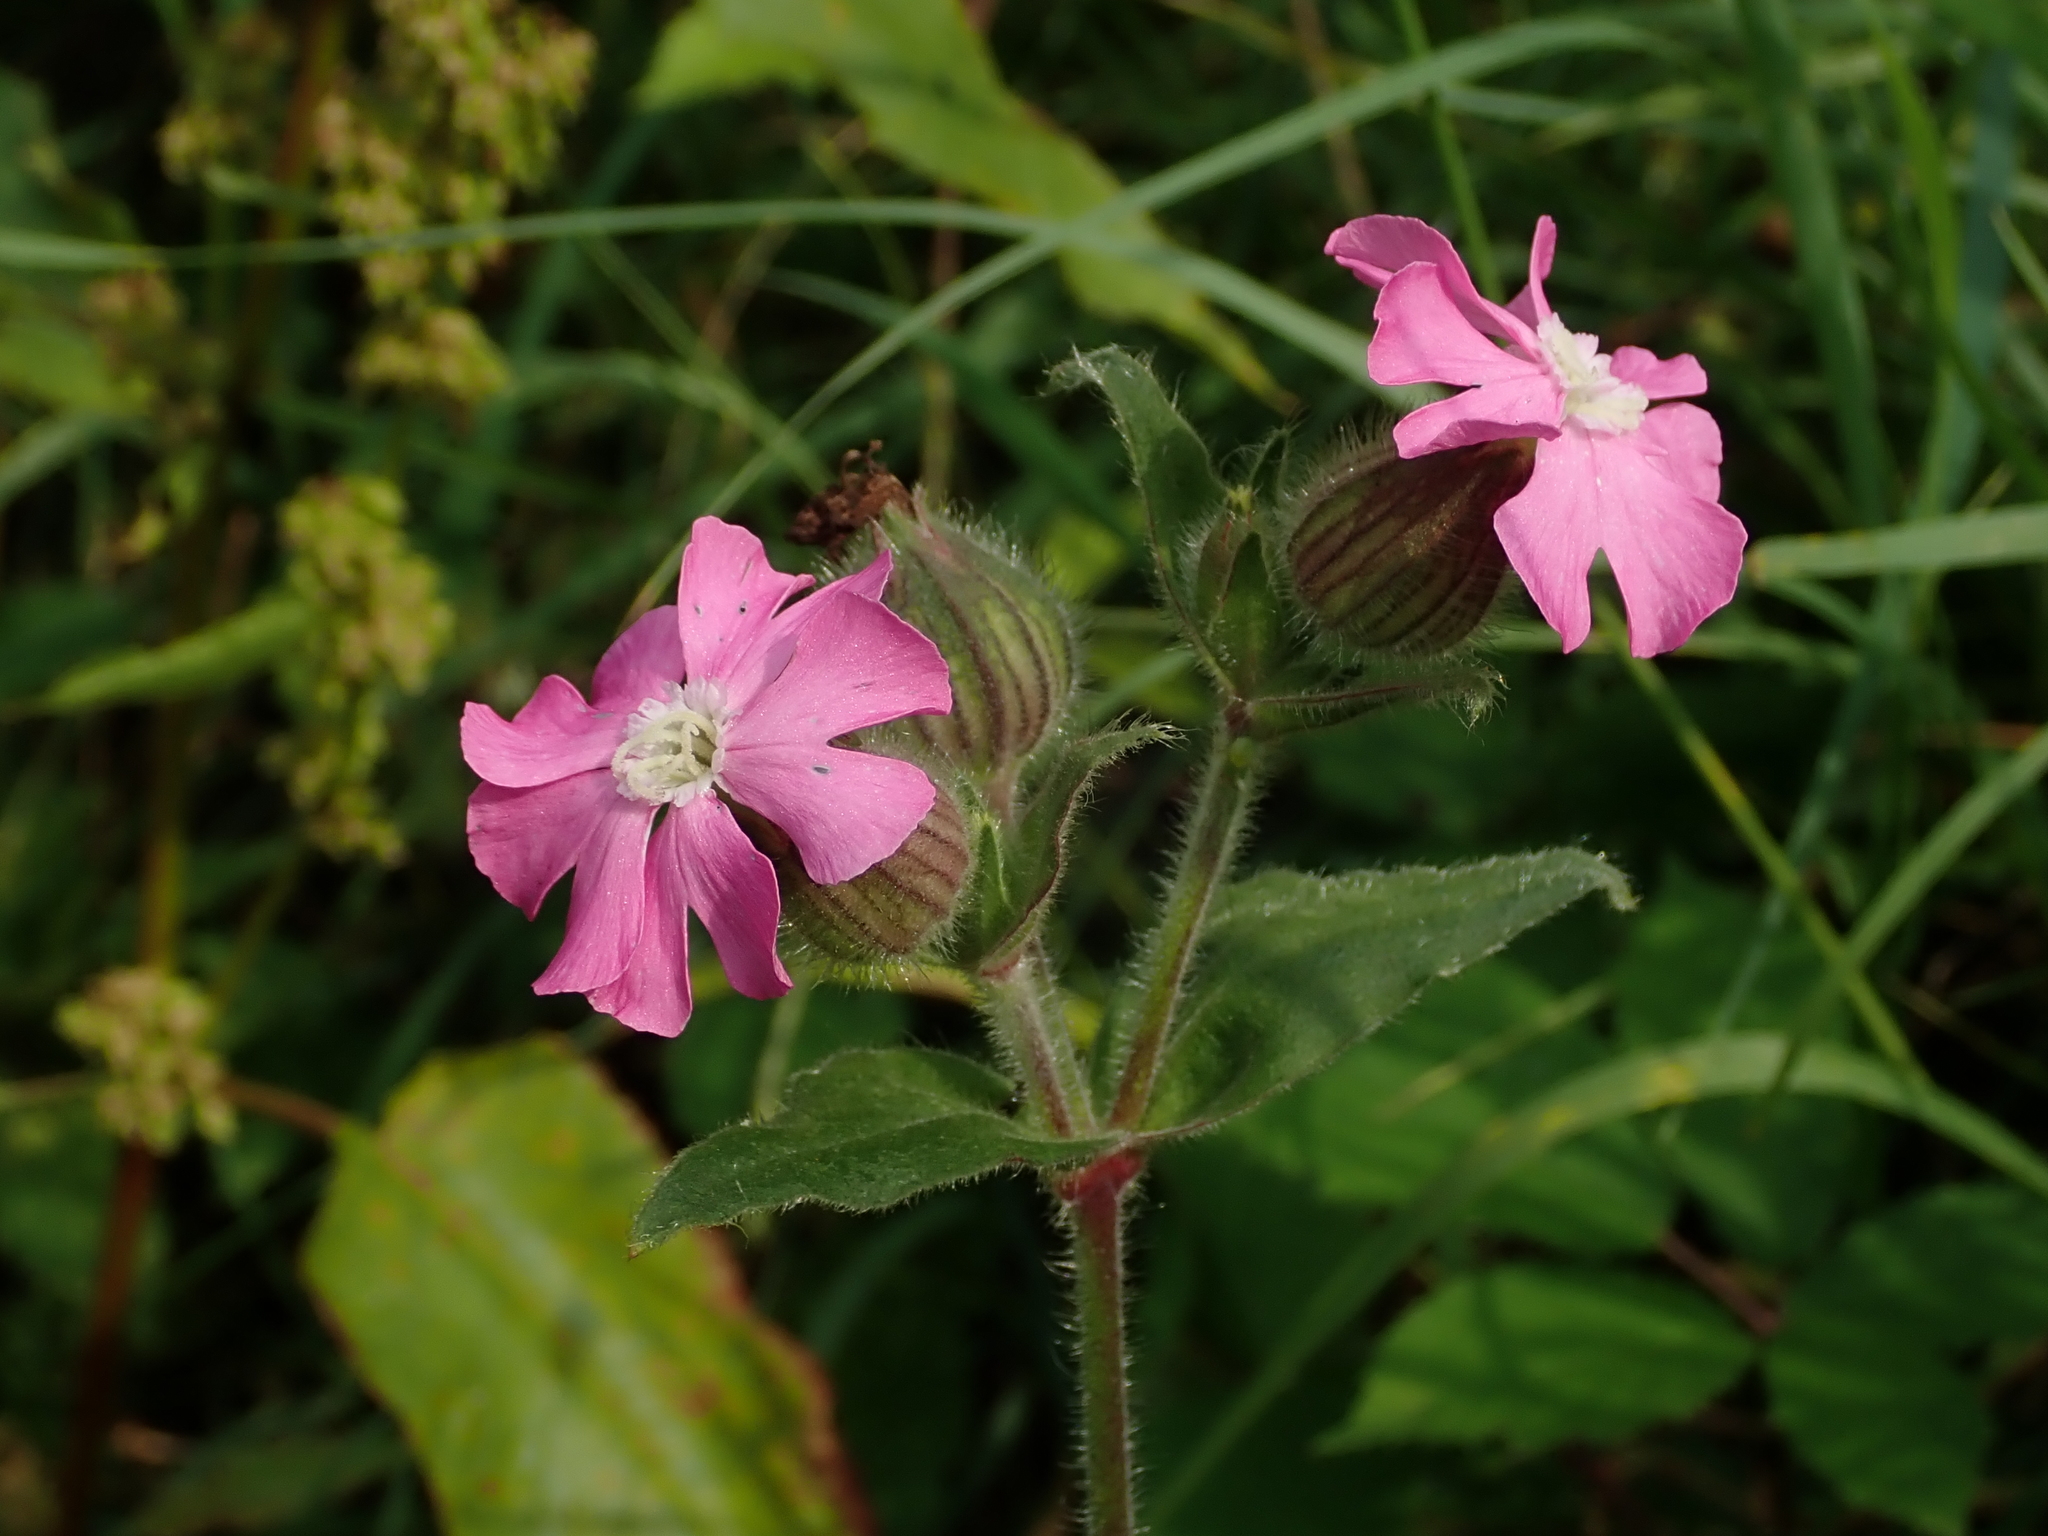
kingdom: Plantae
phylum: Tracheophyta
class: Magnoliopsida
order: Caryophyllales
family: Caryophyllaceae
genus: Silene
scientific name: Silene dioica
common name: Red campion
